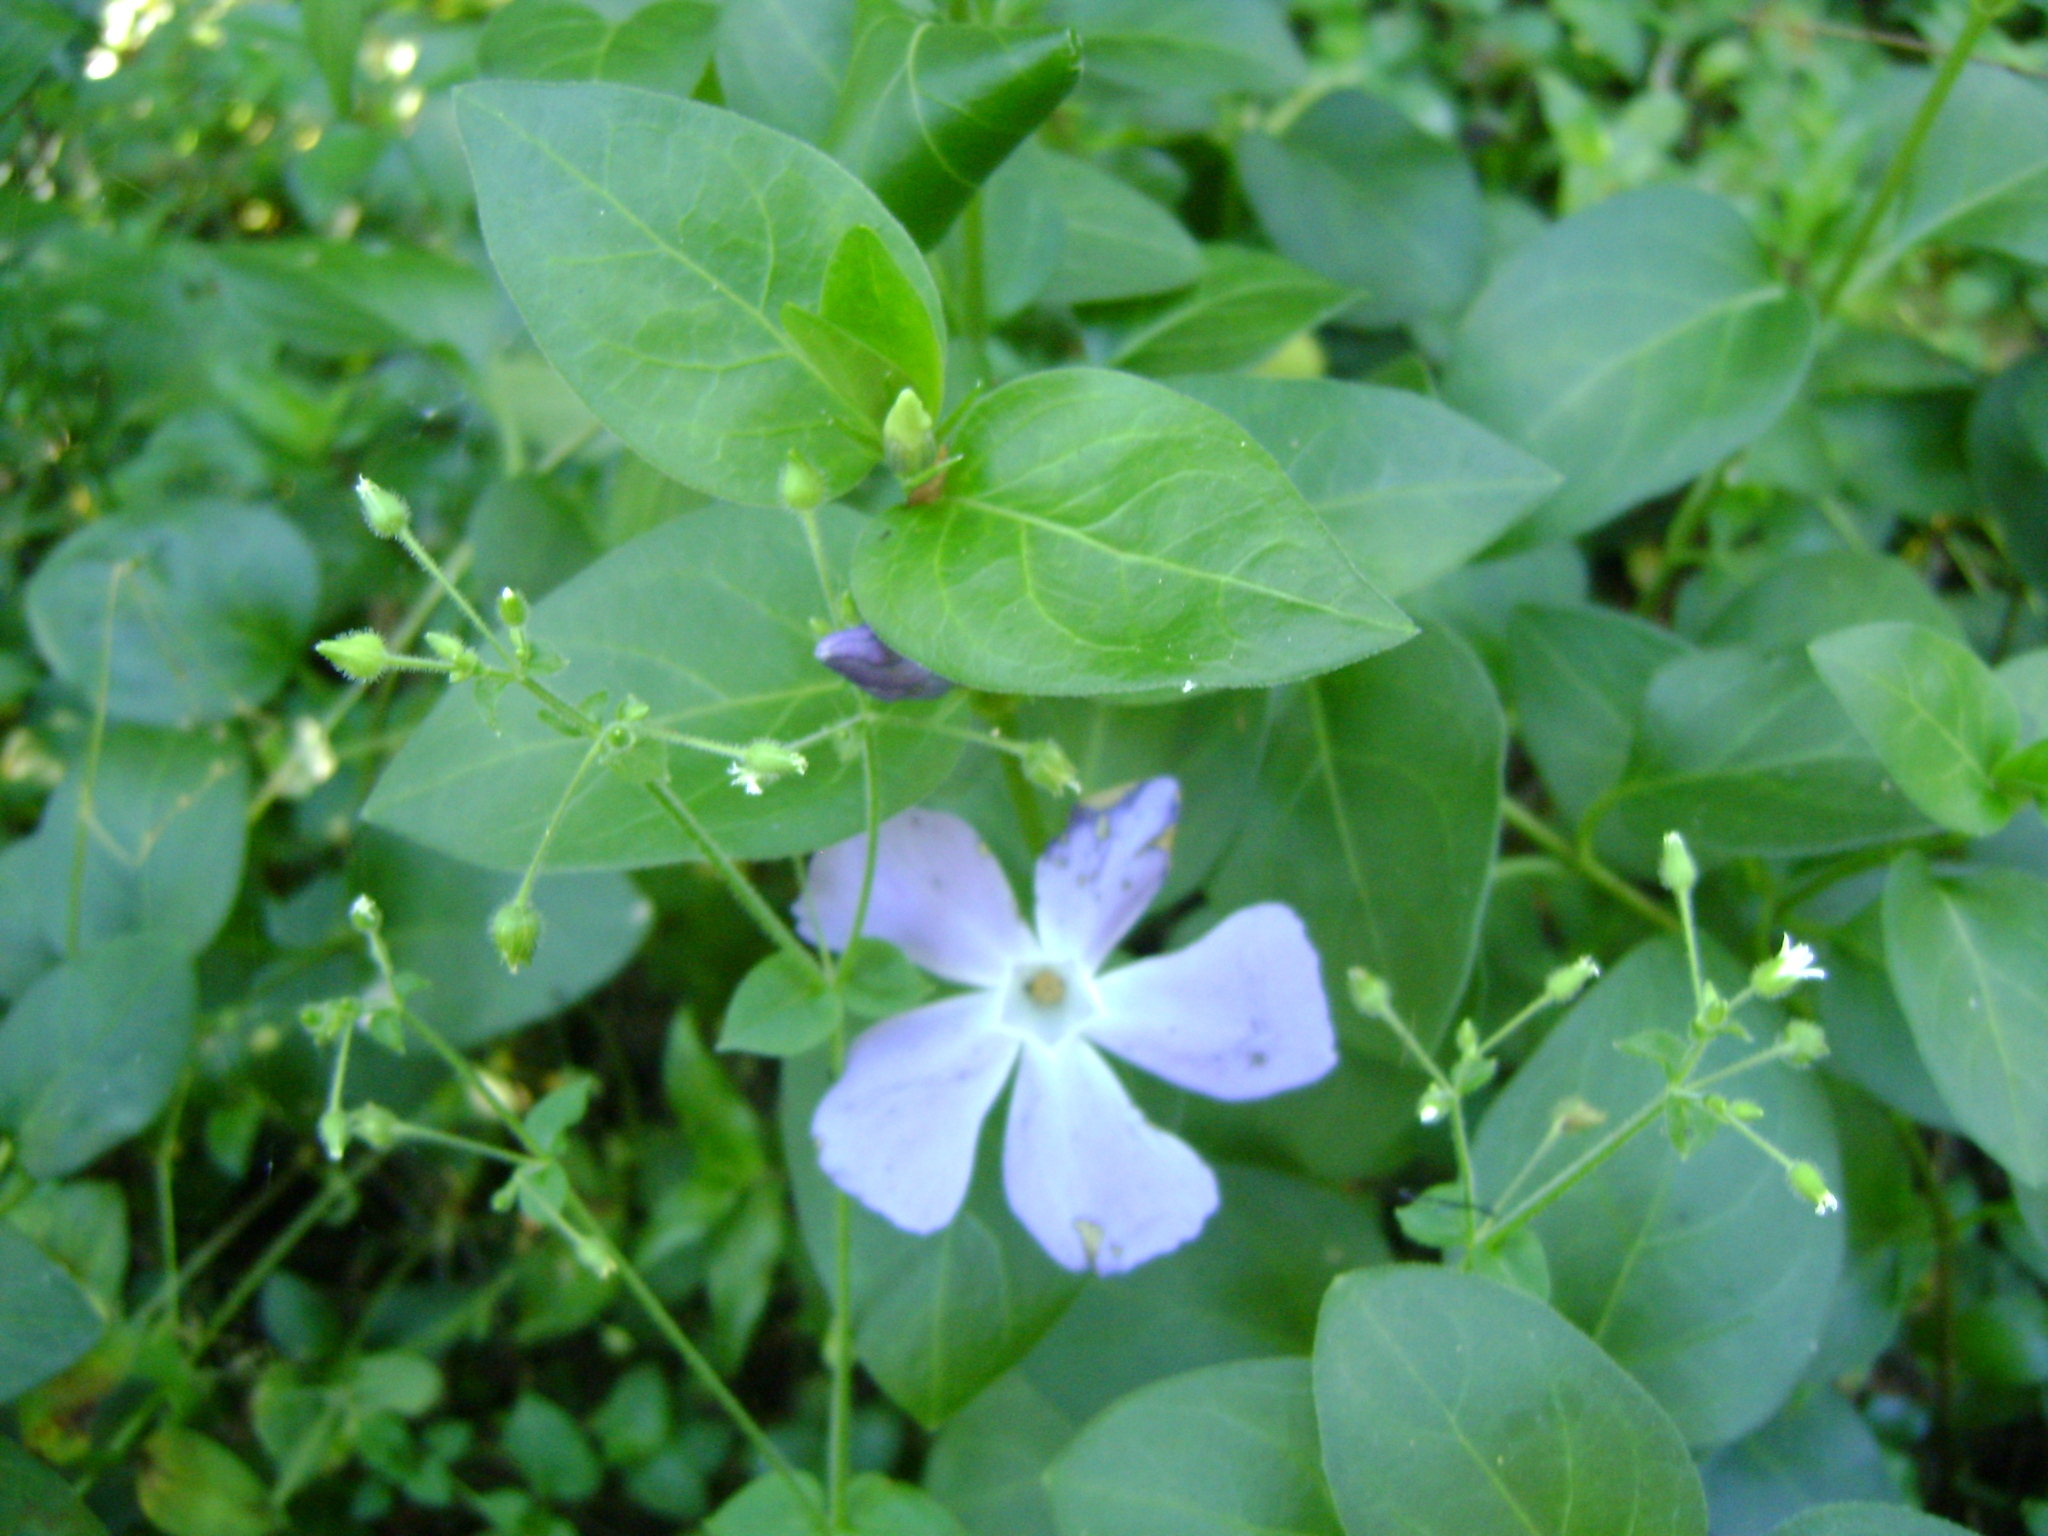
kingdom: Plantae
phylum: Tracheophyta
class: Magnoliopsida
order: Gentianales
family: Apocynaceae
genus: Vinca
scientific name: Vinca major
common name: Greater periwinkle
